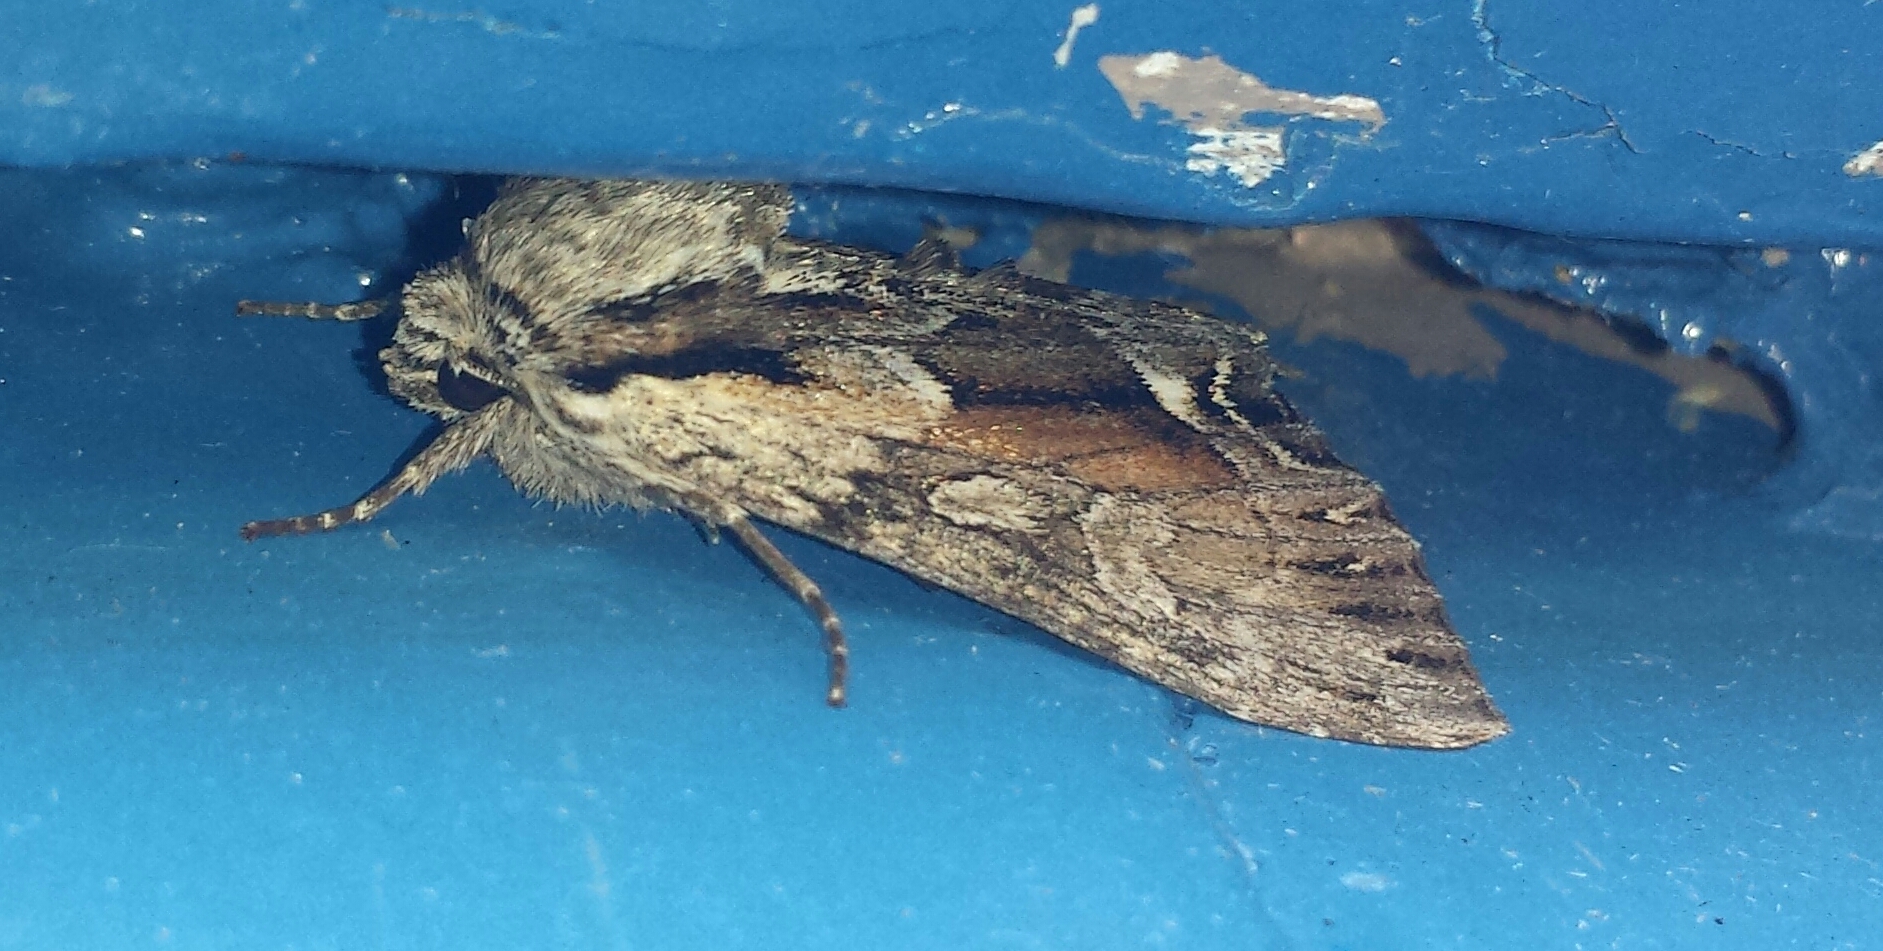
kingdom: Animalia
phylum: Arthropoda
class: Insecta
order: Lepidoptera
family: Noctuidae
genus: Hyppa
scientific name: Hyppa xylinoides
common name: Common hyppa moth
